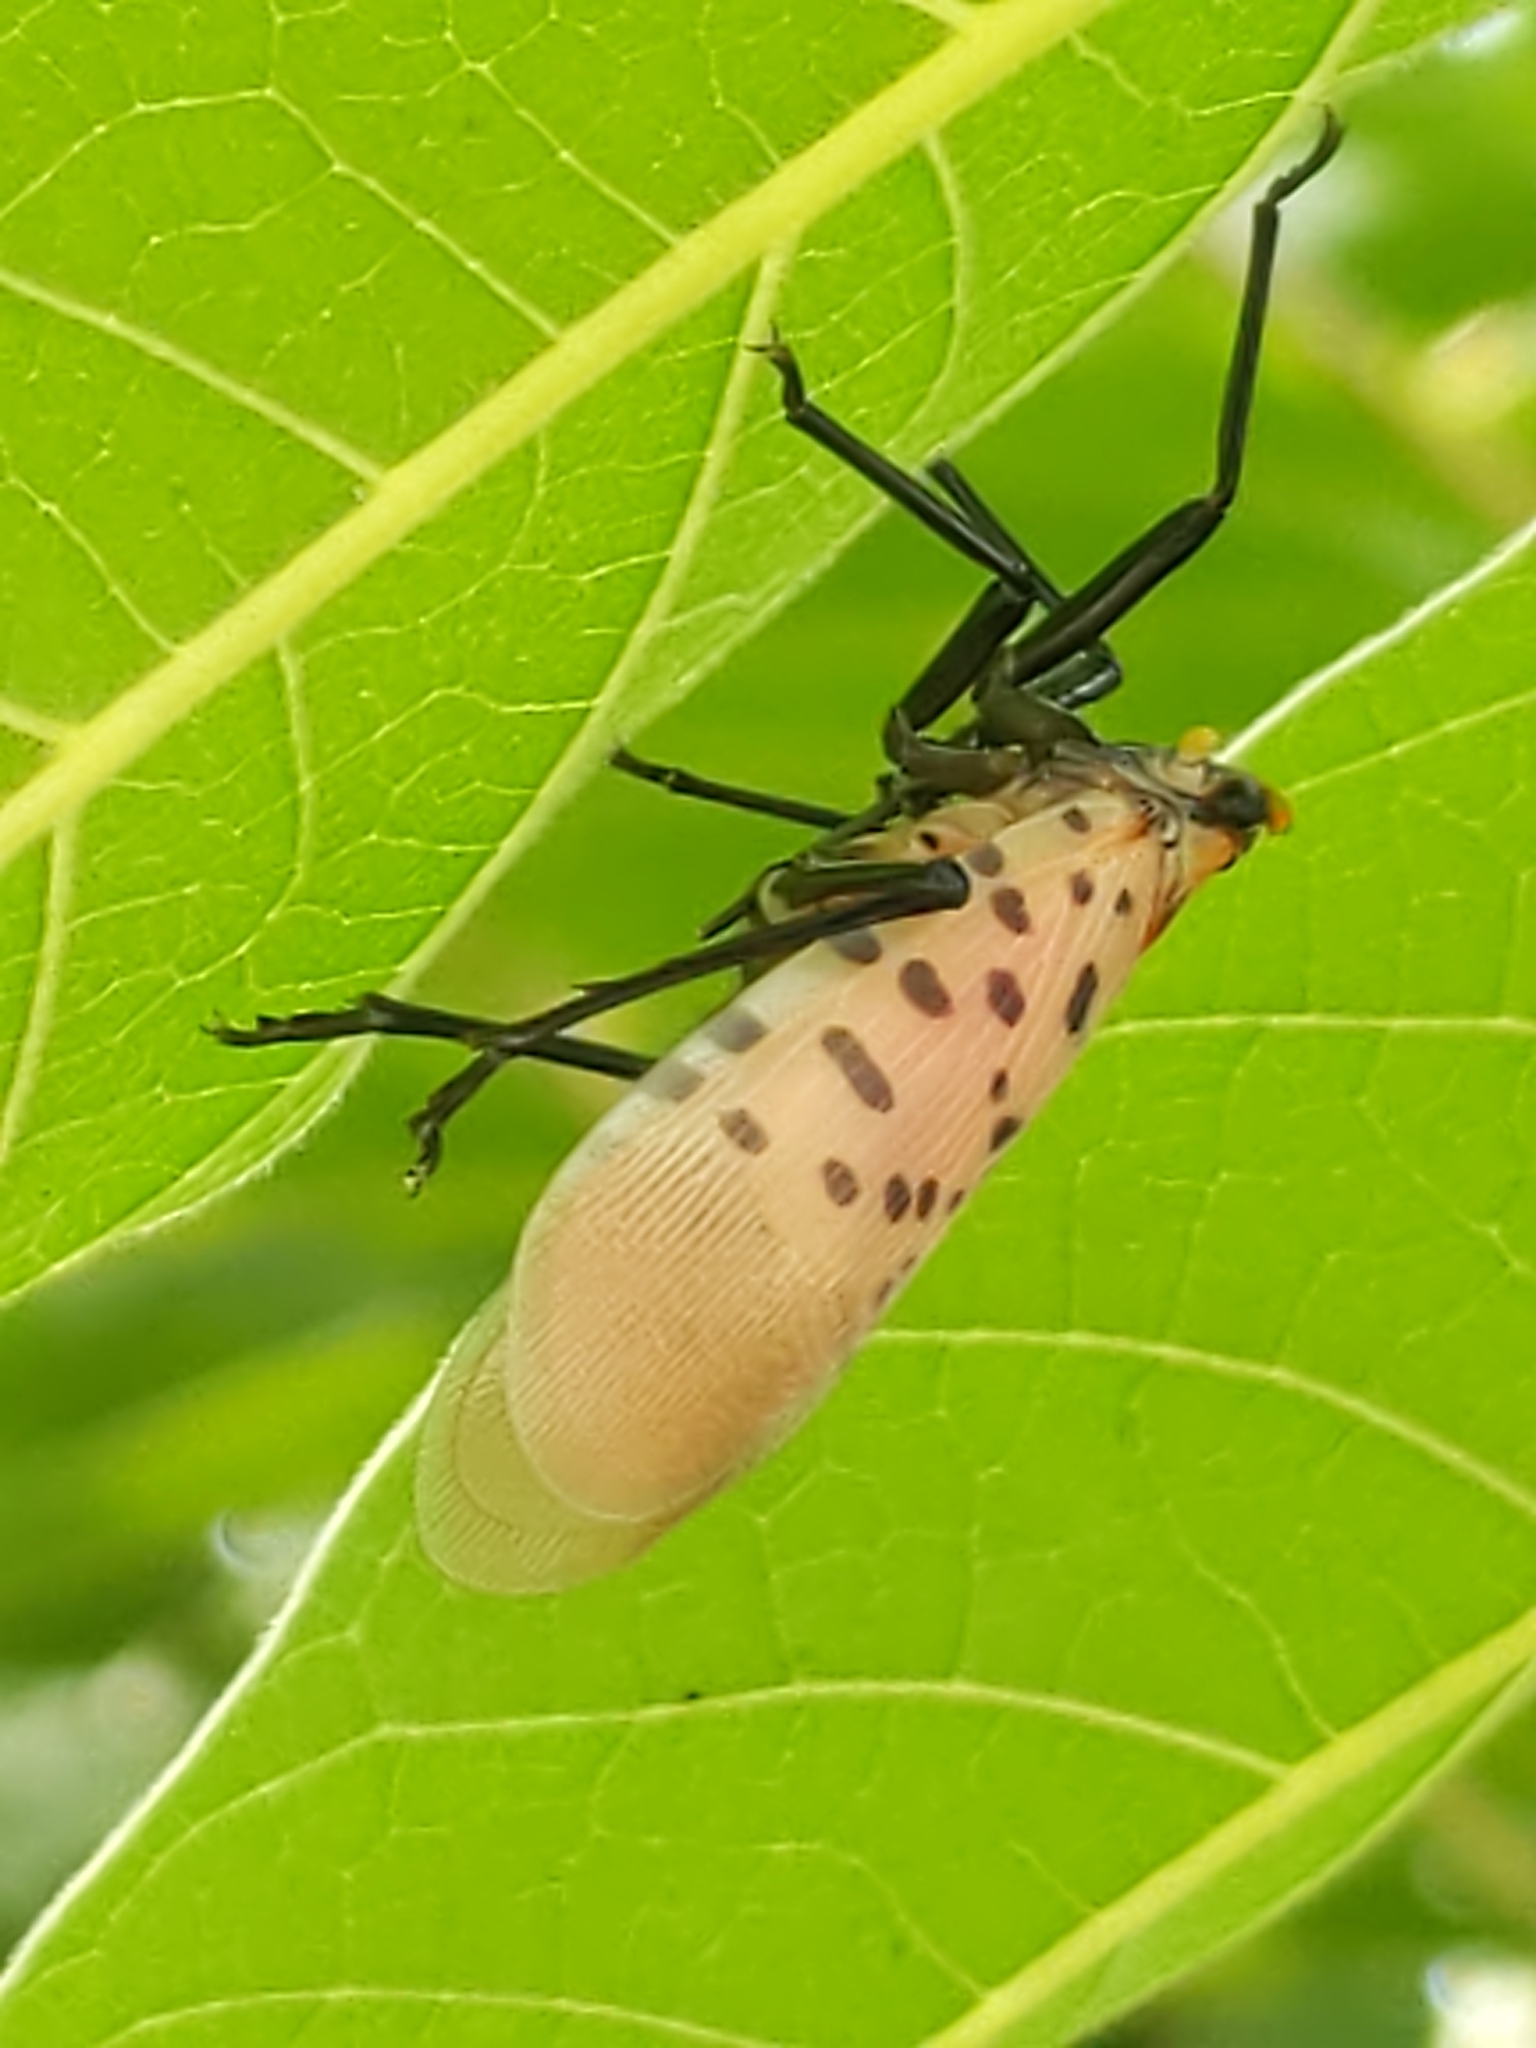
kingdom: Animalia
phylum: Arthropoda
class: Insecta
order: Hemiptera
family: Fulgoridae
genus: Lycorma
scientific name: Lycorma delicatula
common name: Spotted lanternfly
